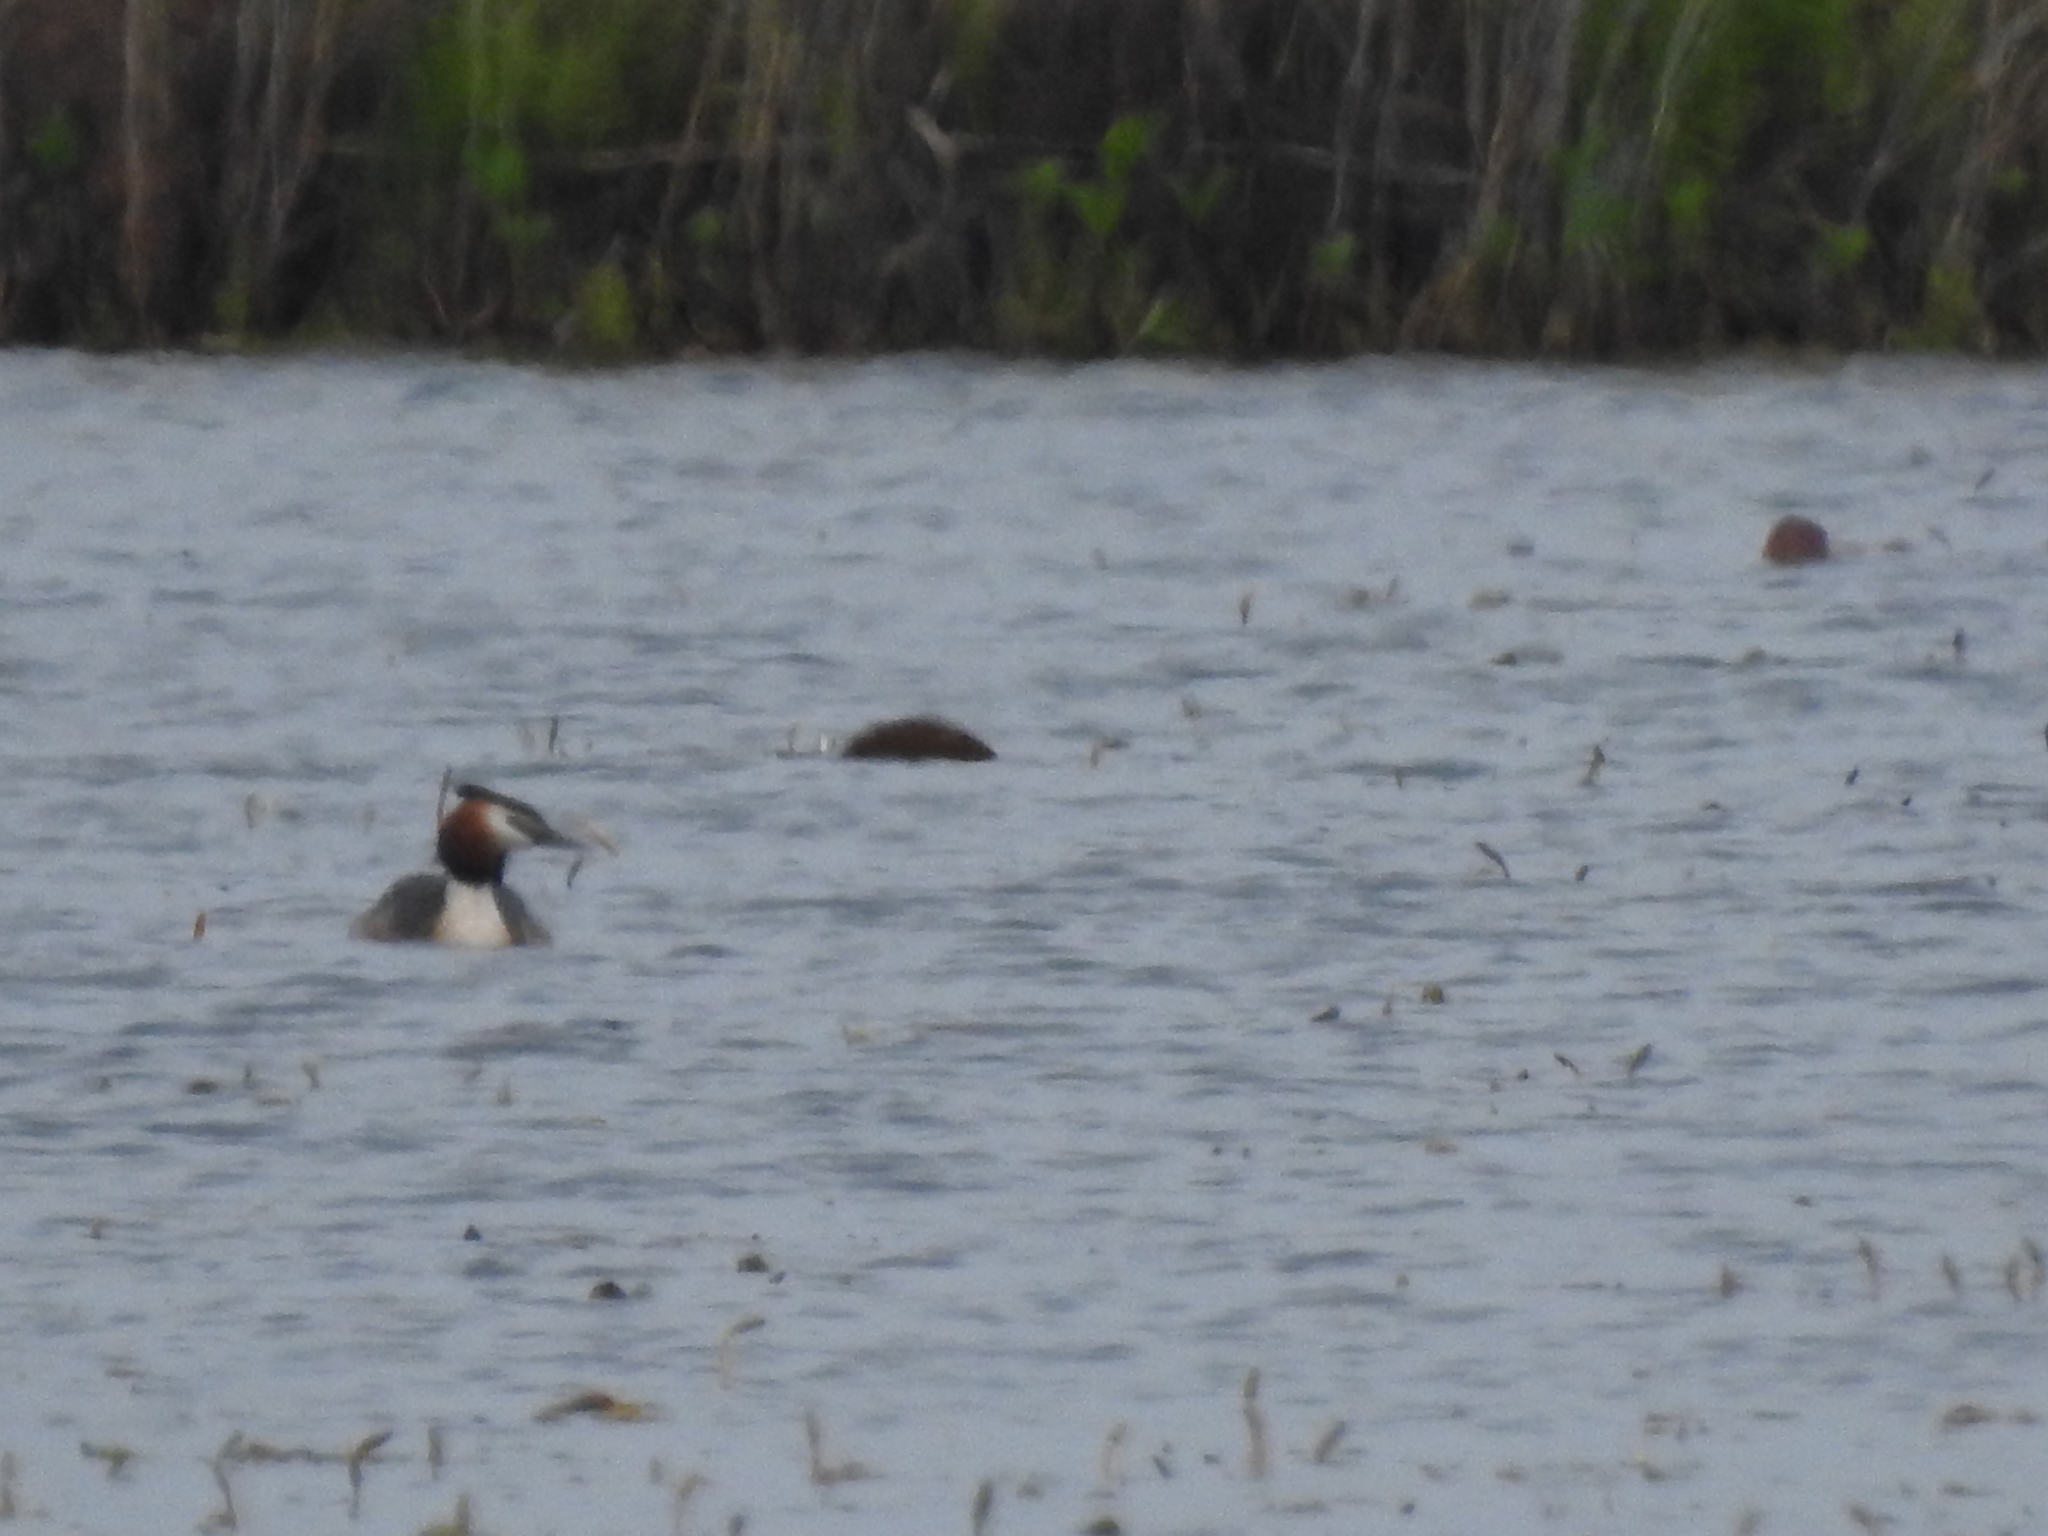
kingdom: Animalia
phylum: Chordata
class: Aves
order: Podicipediformes
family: Podicipedidae
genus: Podiceps
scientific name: Podiceps cristatus
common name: Great crested grebe
